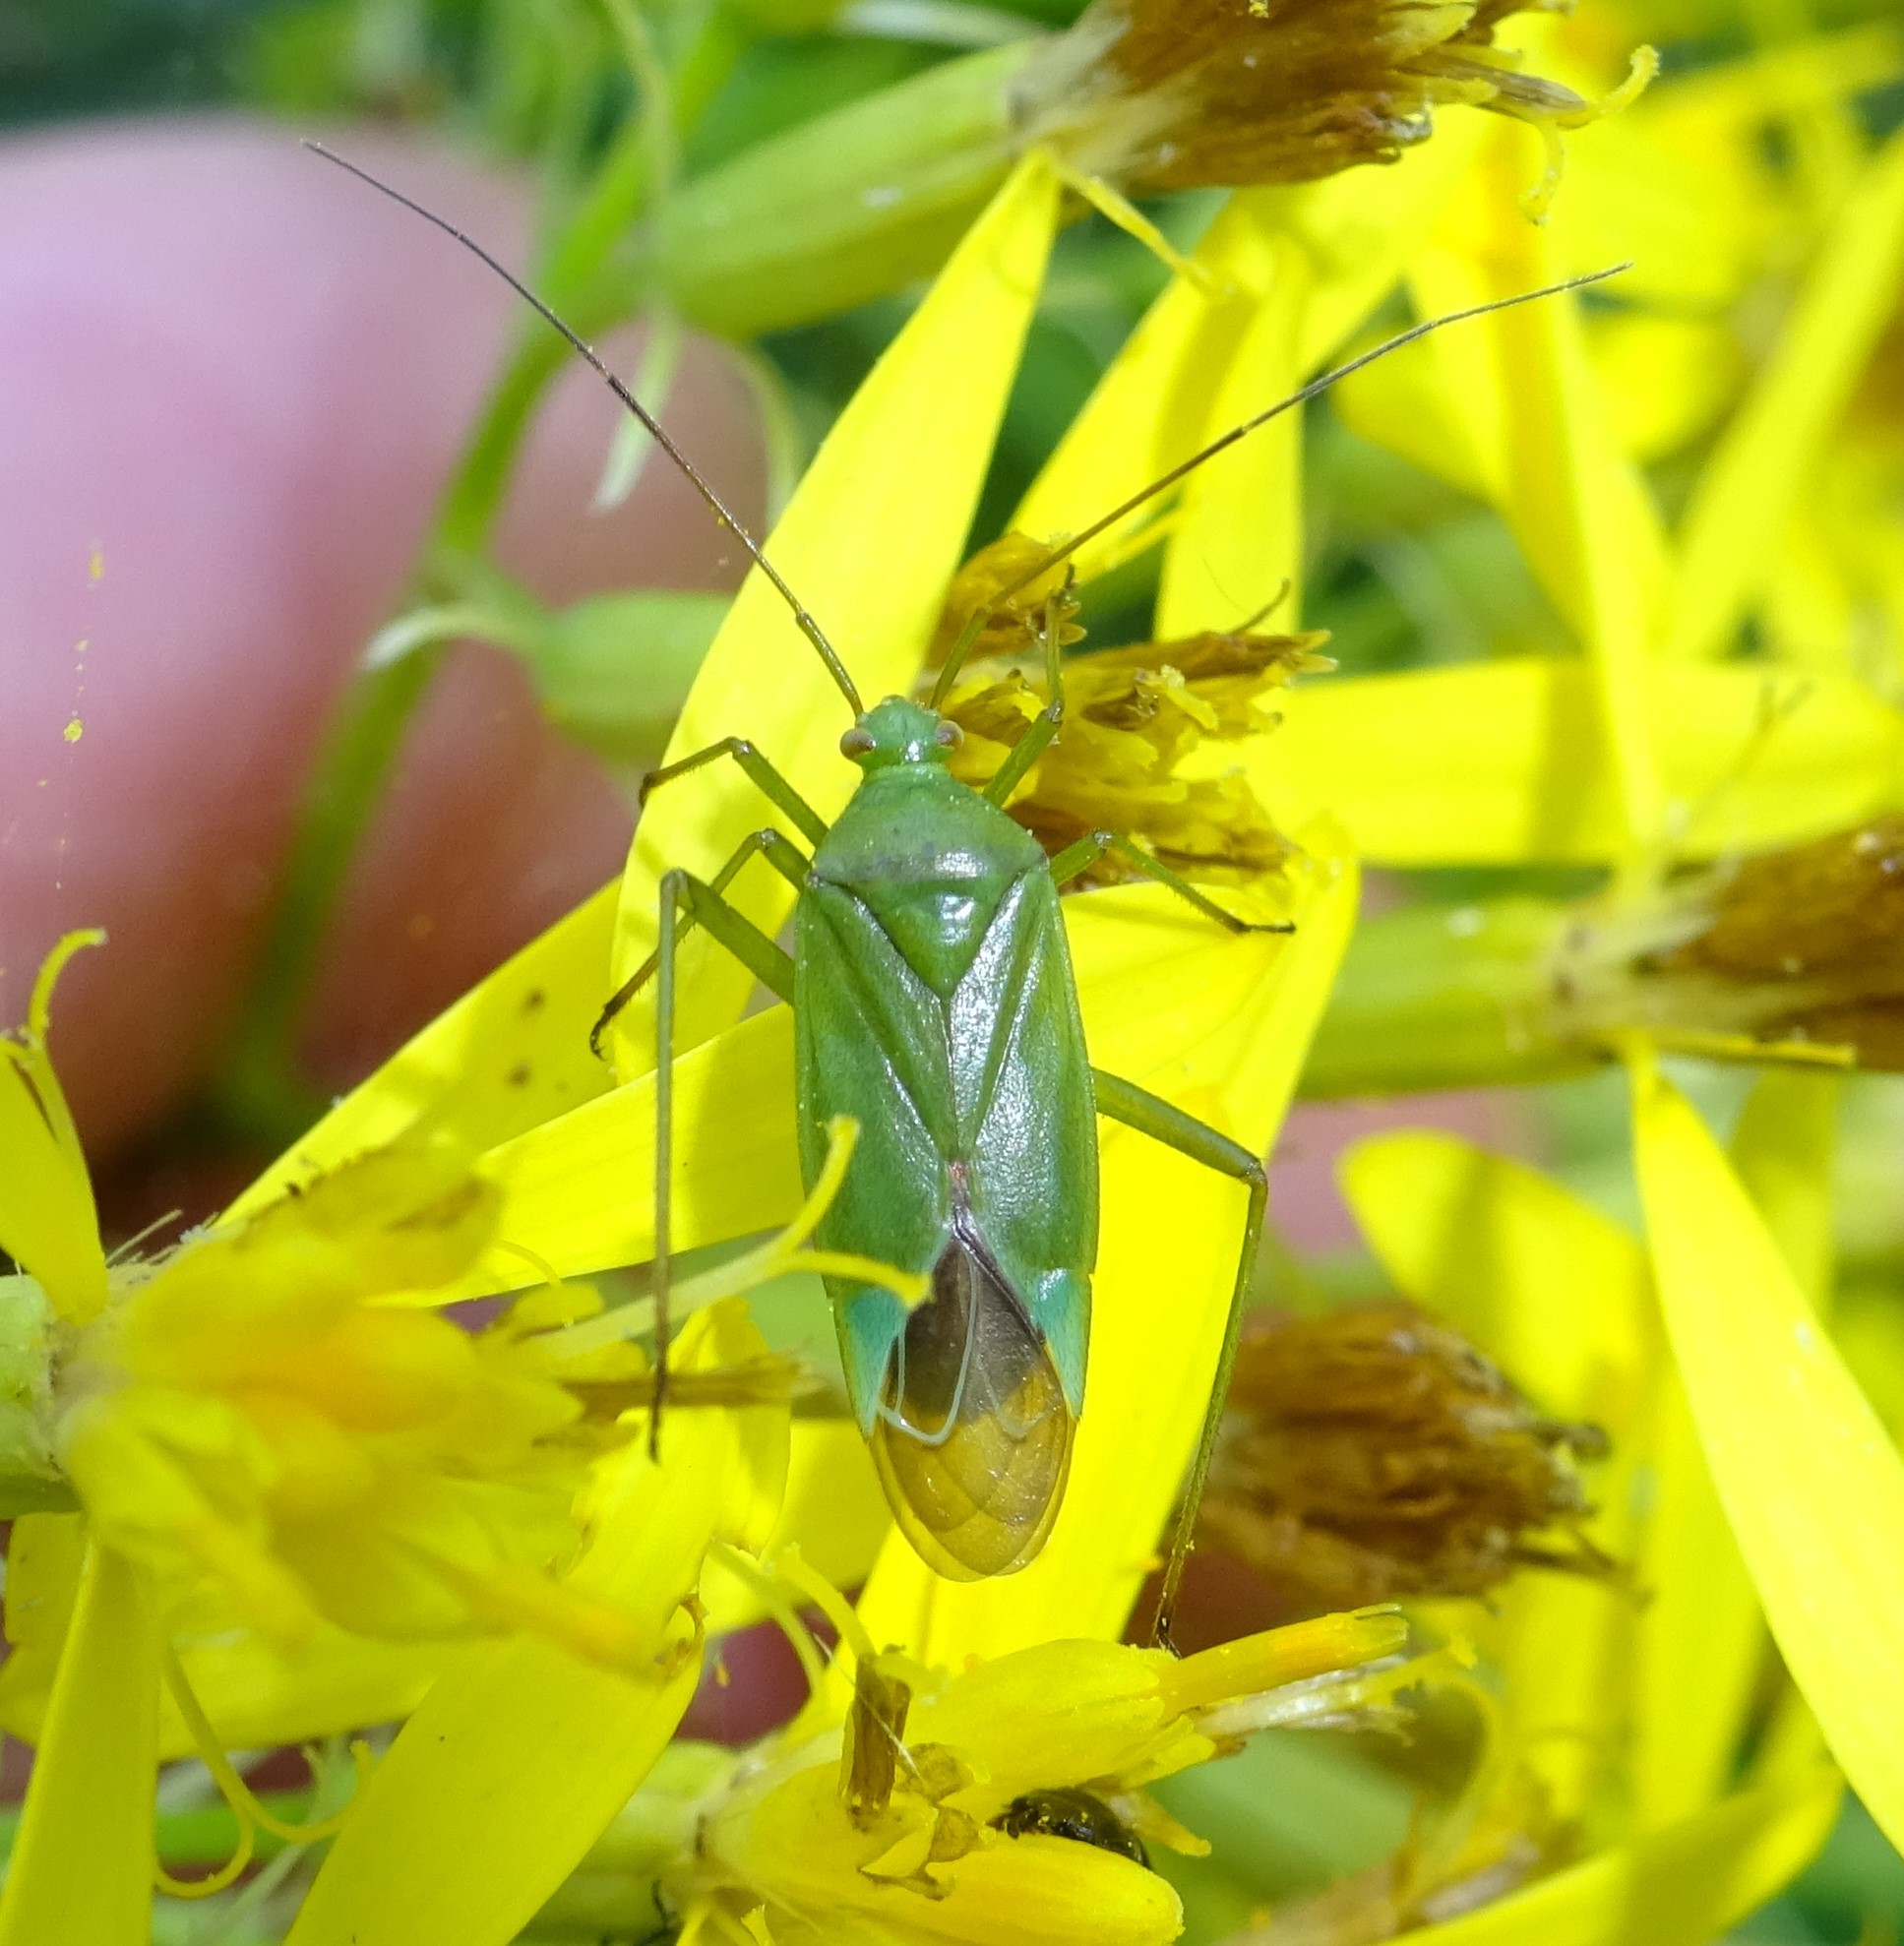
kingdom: Animalia
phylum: Arthropoda
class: Insecta
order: Hemiptera
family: Miridae
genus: Calocoris
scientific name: Calocoris affinis
